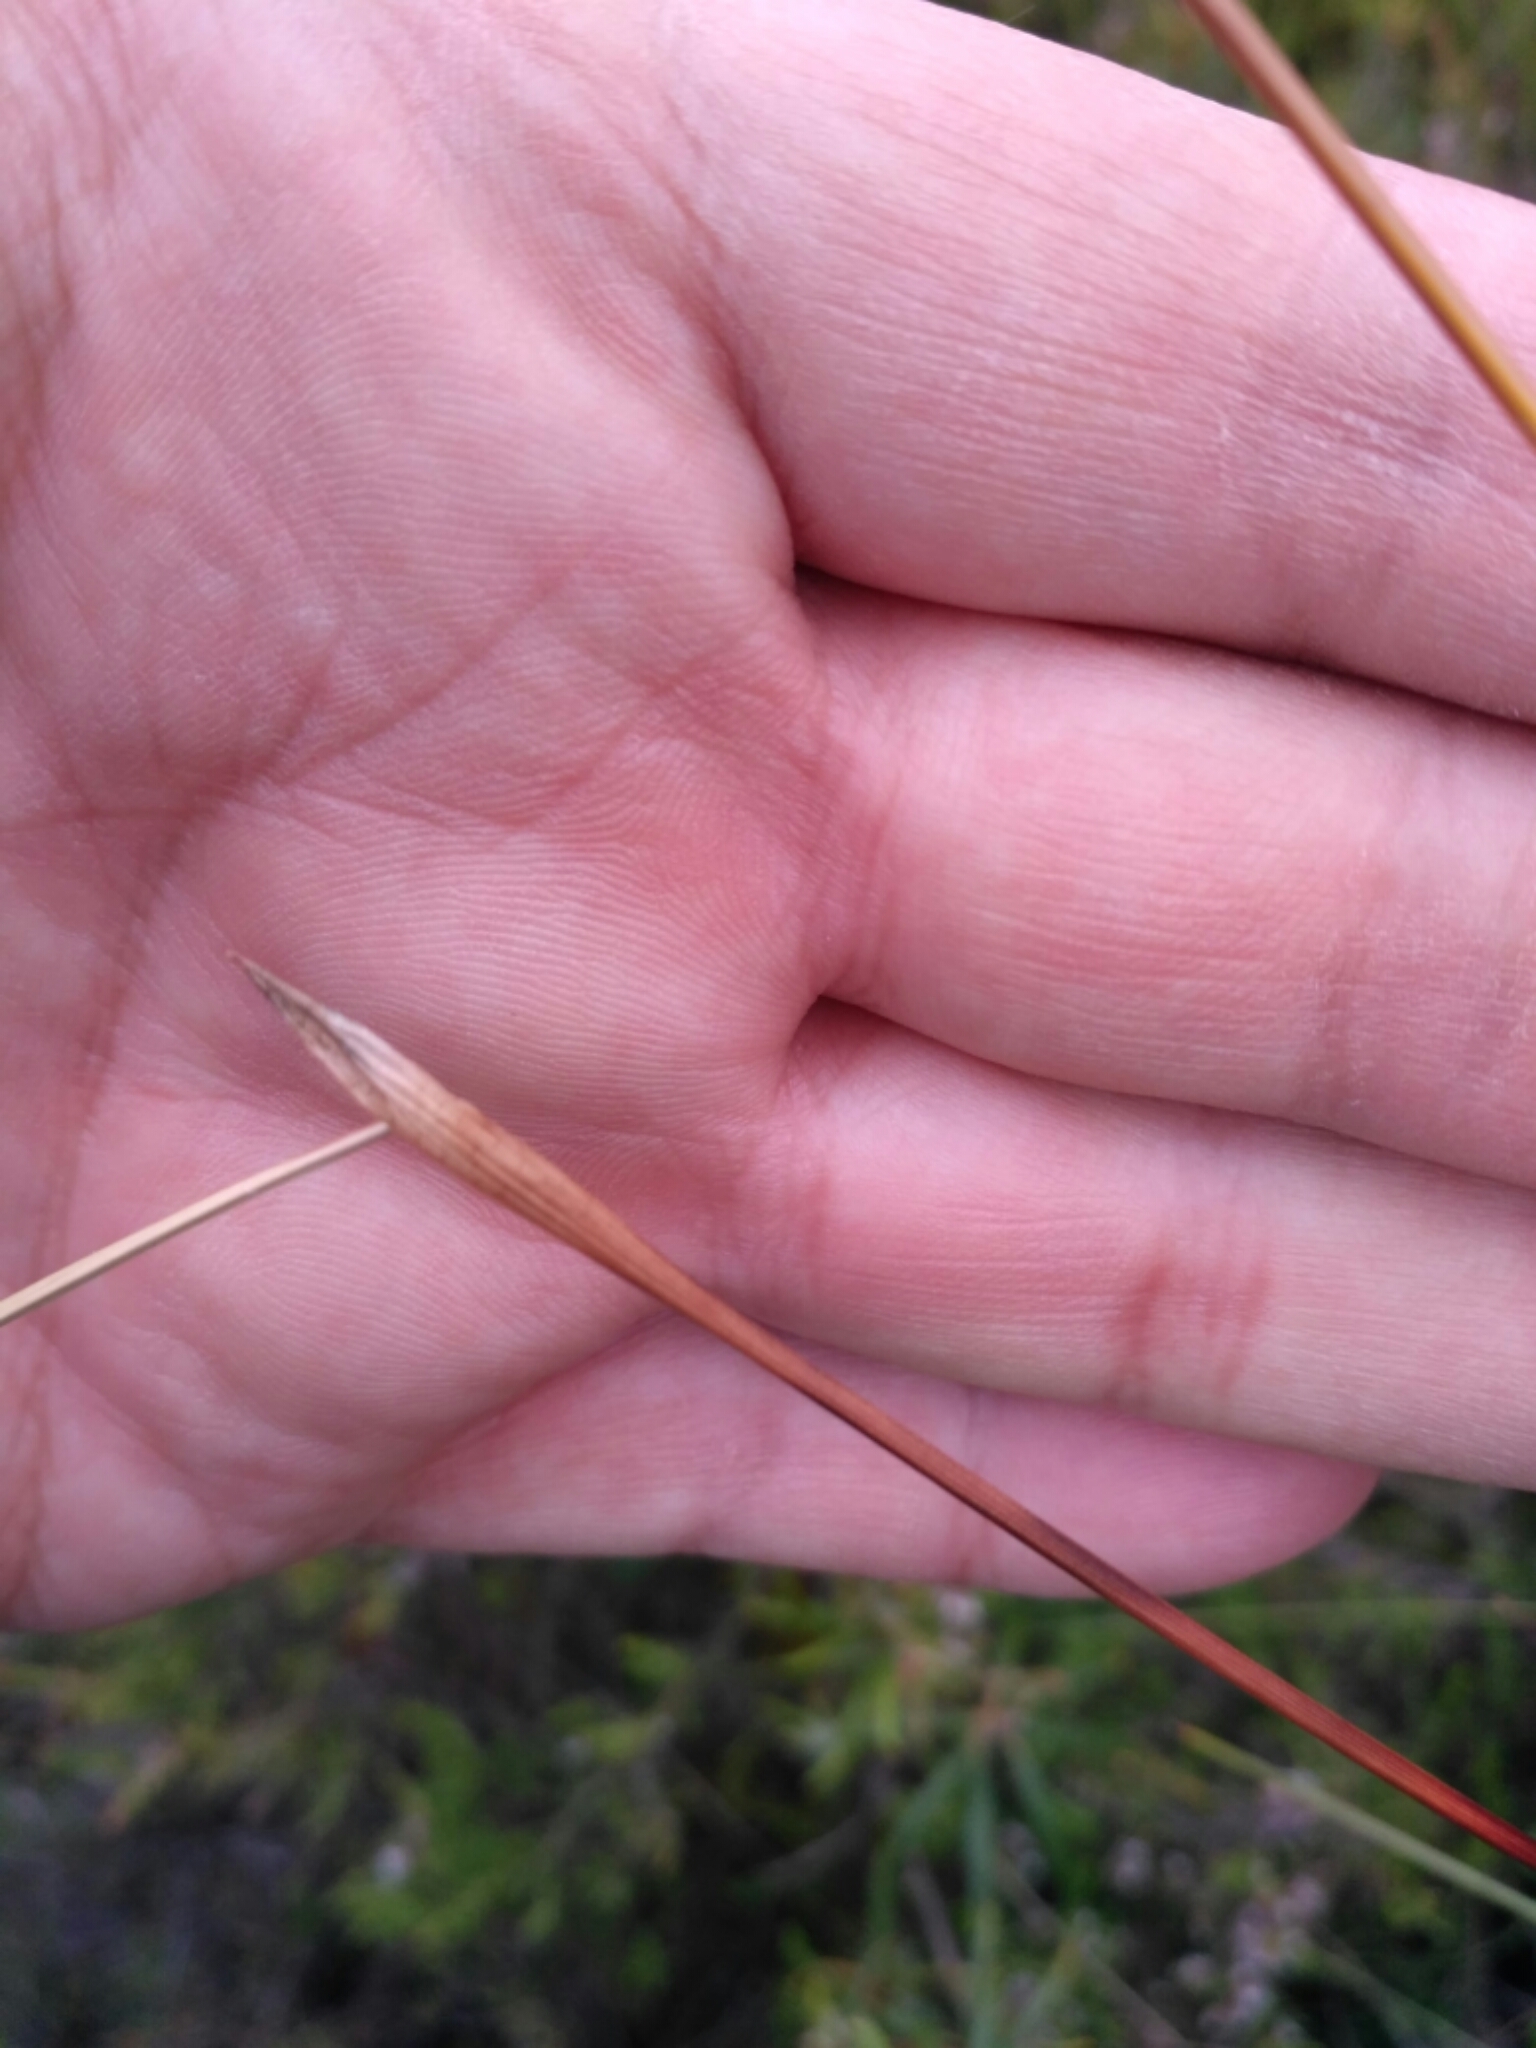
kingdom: Plantae
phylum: Tracheophyta
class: Liliopsida
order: Poales
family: Cyperaceae
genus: Eriophorum
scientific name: Eriophorum vaginatum
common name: Hare's-tail cottongrass
